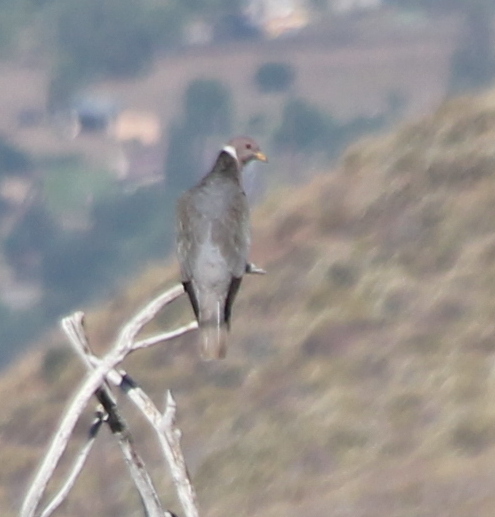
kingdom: Animalia
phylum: Chordata
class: Aves
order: Columbiformes
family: Columbidae
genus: Patagioenas
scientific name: Patagioenas fasciata
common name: Band-tailed pigeon
